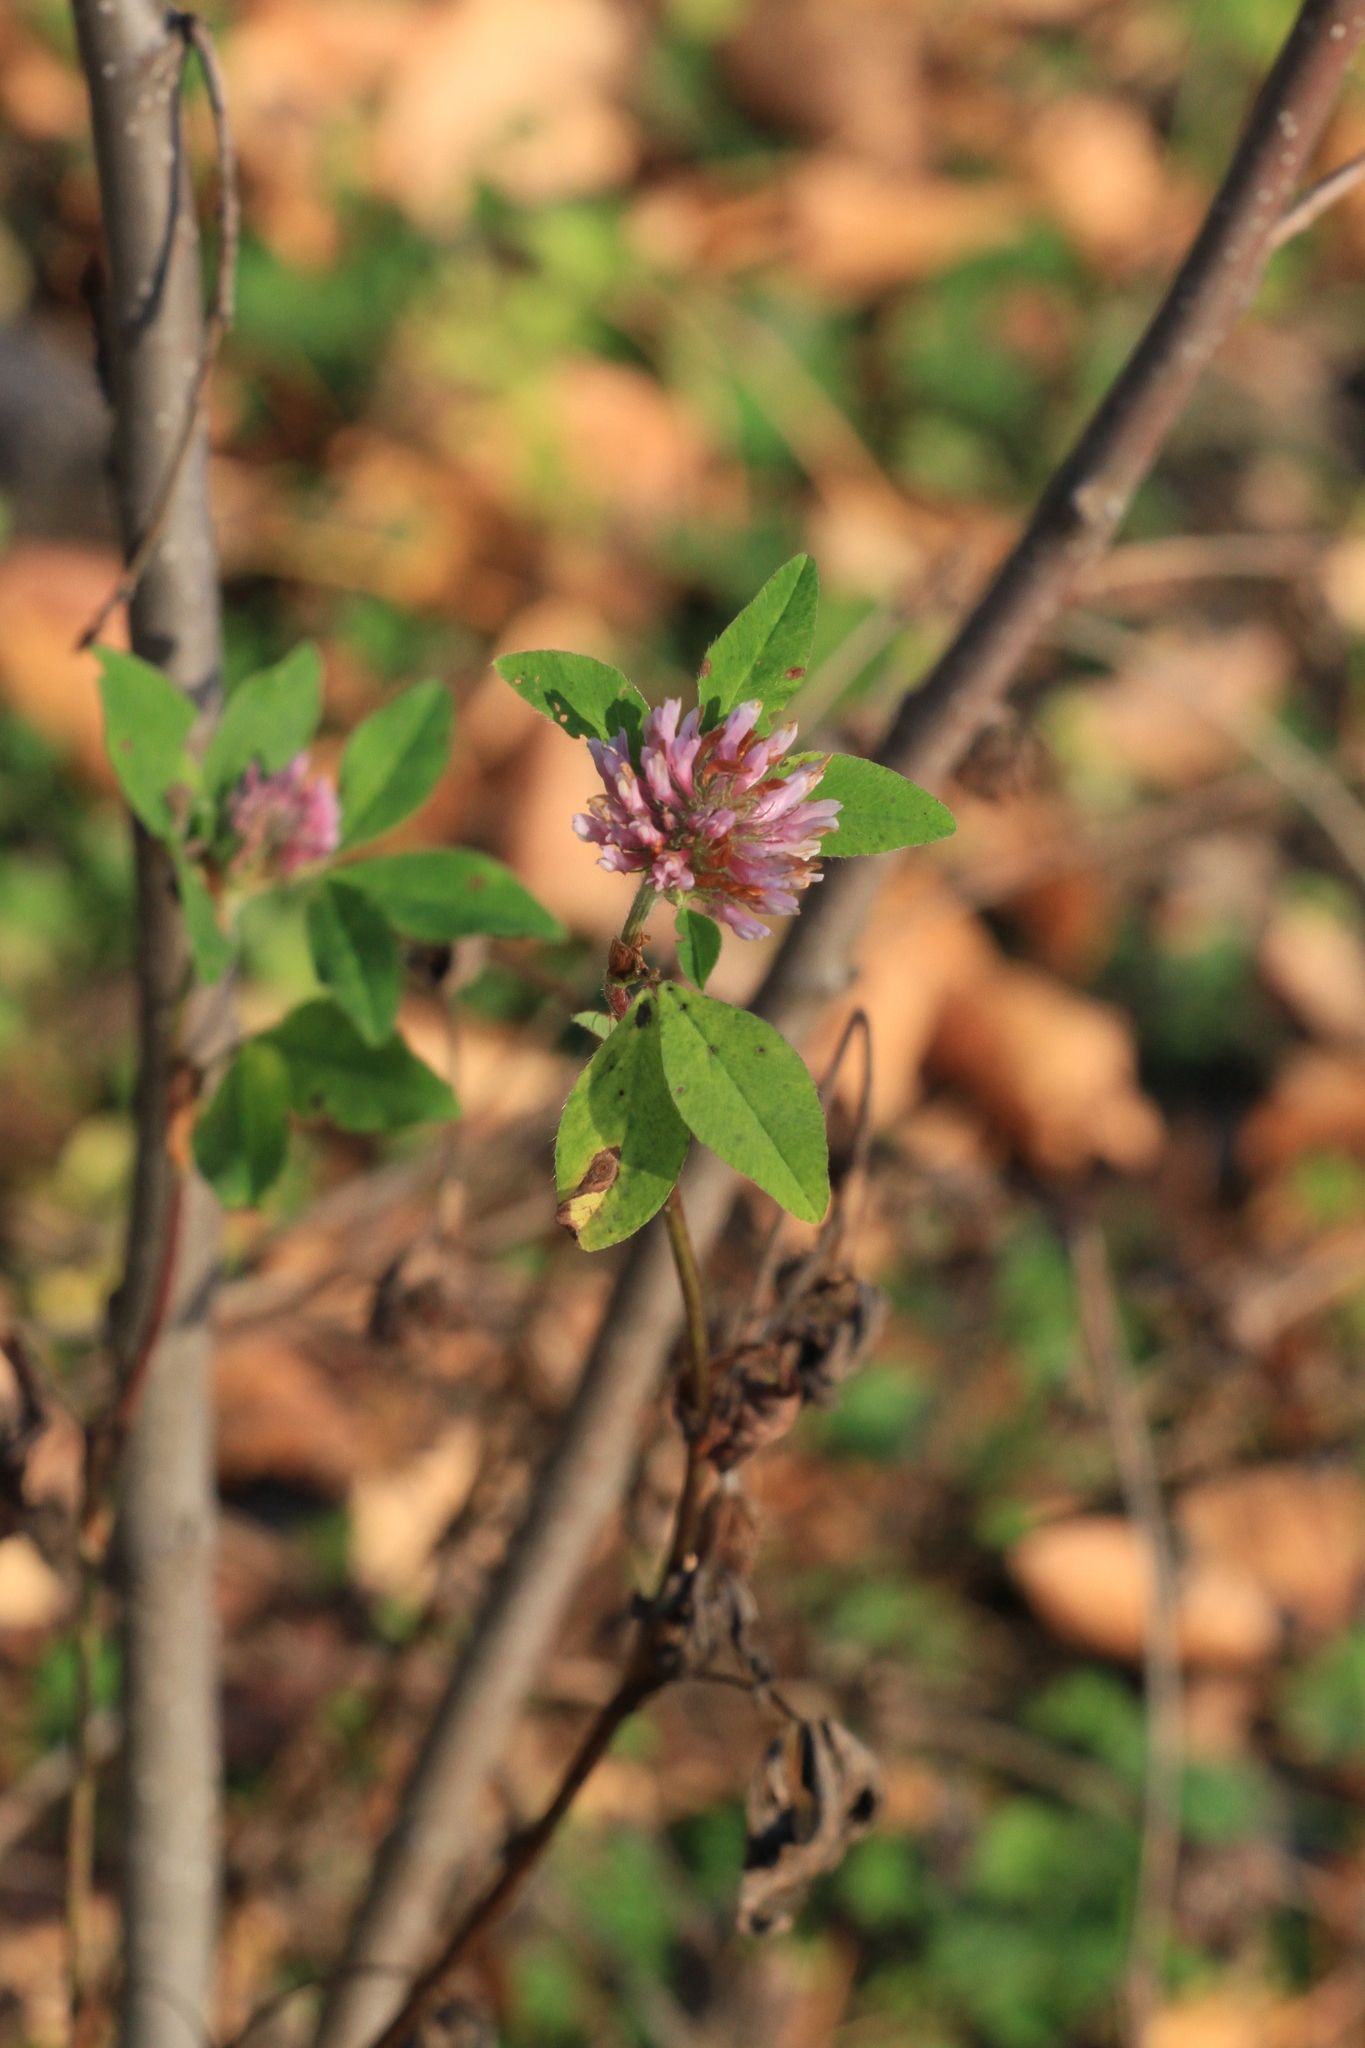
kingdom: Plantae
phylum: Tracheophyta
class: Magnoliopsida
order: Fabales
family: Fabaceae
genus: Trifolium
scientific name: Trifolium pratense
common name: Red clover
